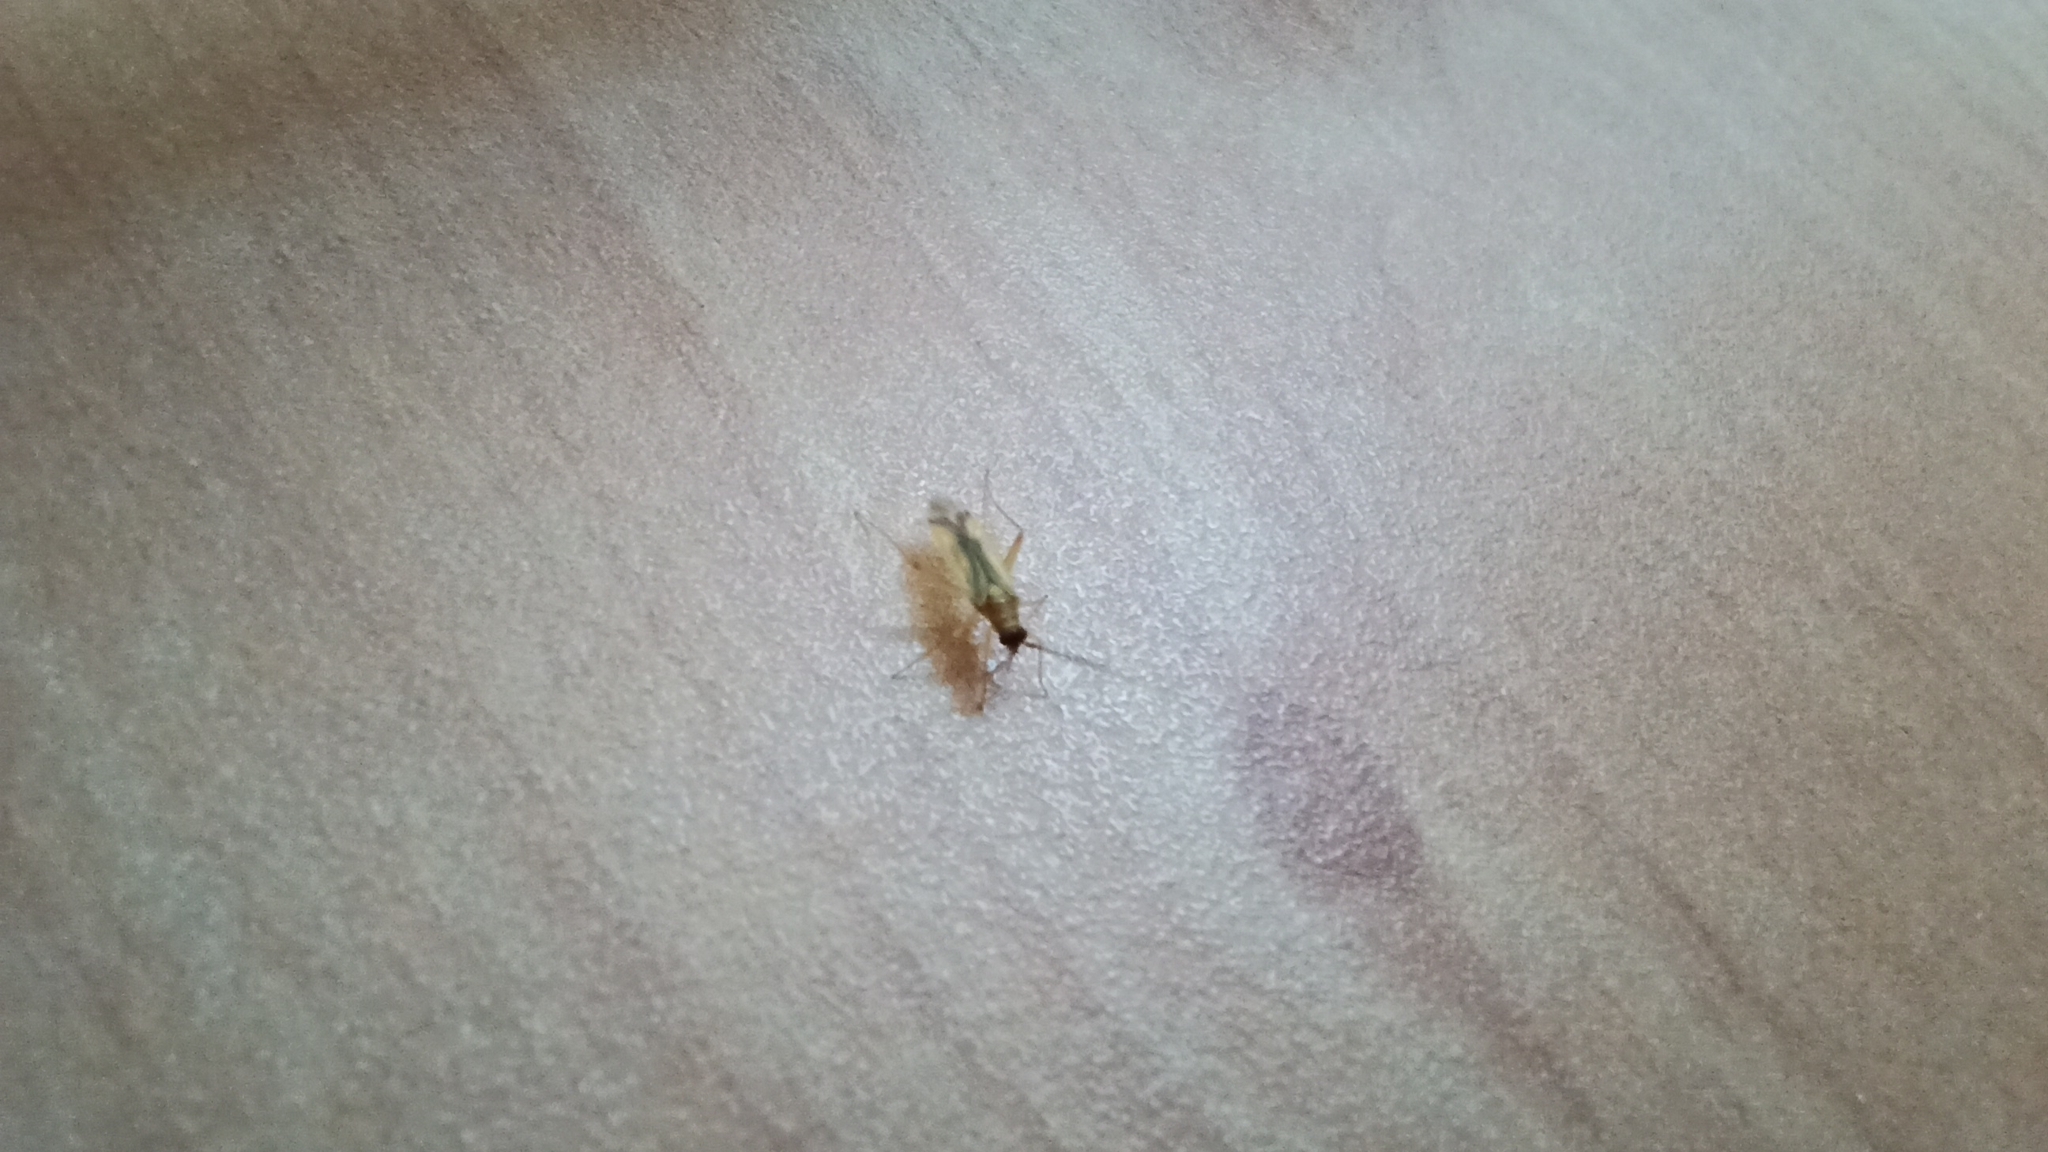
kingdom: Animalia
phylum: Arthropoda
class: Insecta
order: Hemiptera
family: Miridae
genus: Campyloneura
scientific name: Campyloneura virgula
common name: Predatory bug
